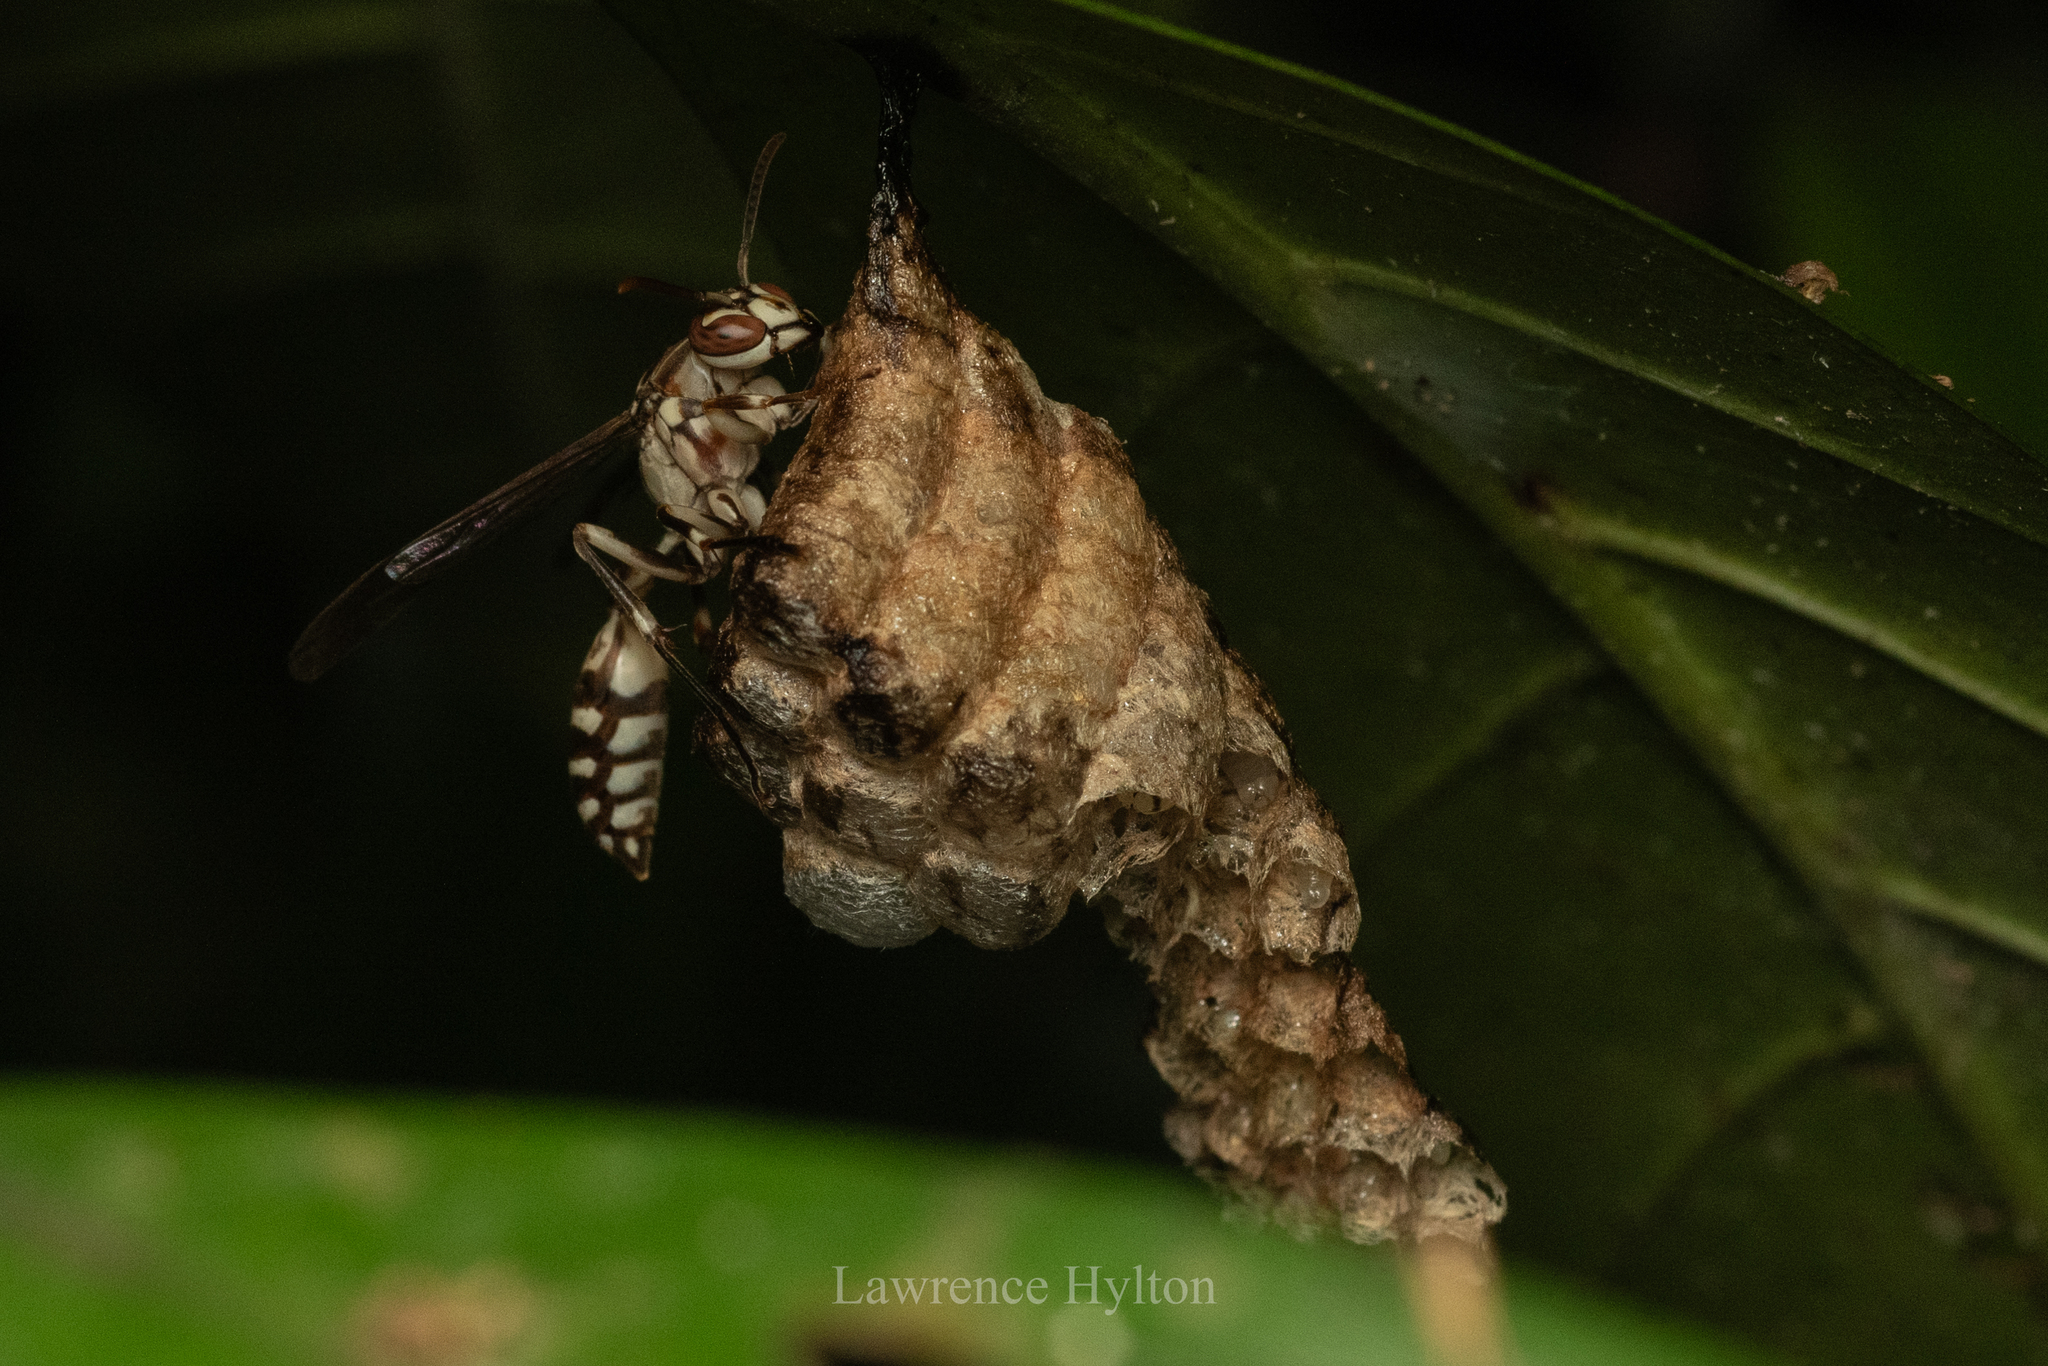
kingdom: Animalia
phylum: Arthropoda
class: Insecta
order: Hymenoptera
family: Vespidae
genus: Parapolybia
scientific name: Parapolybia nodosa
